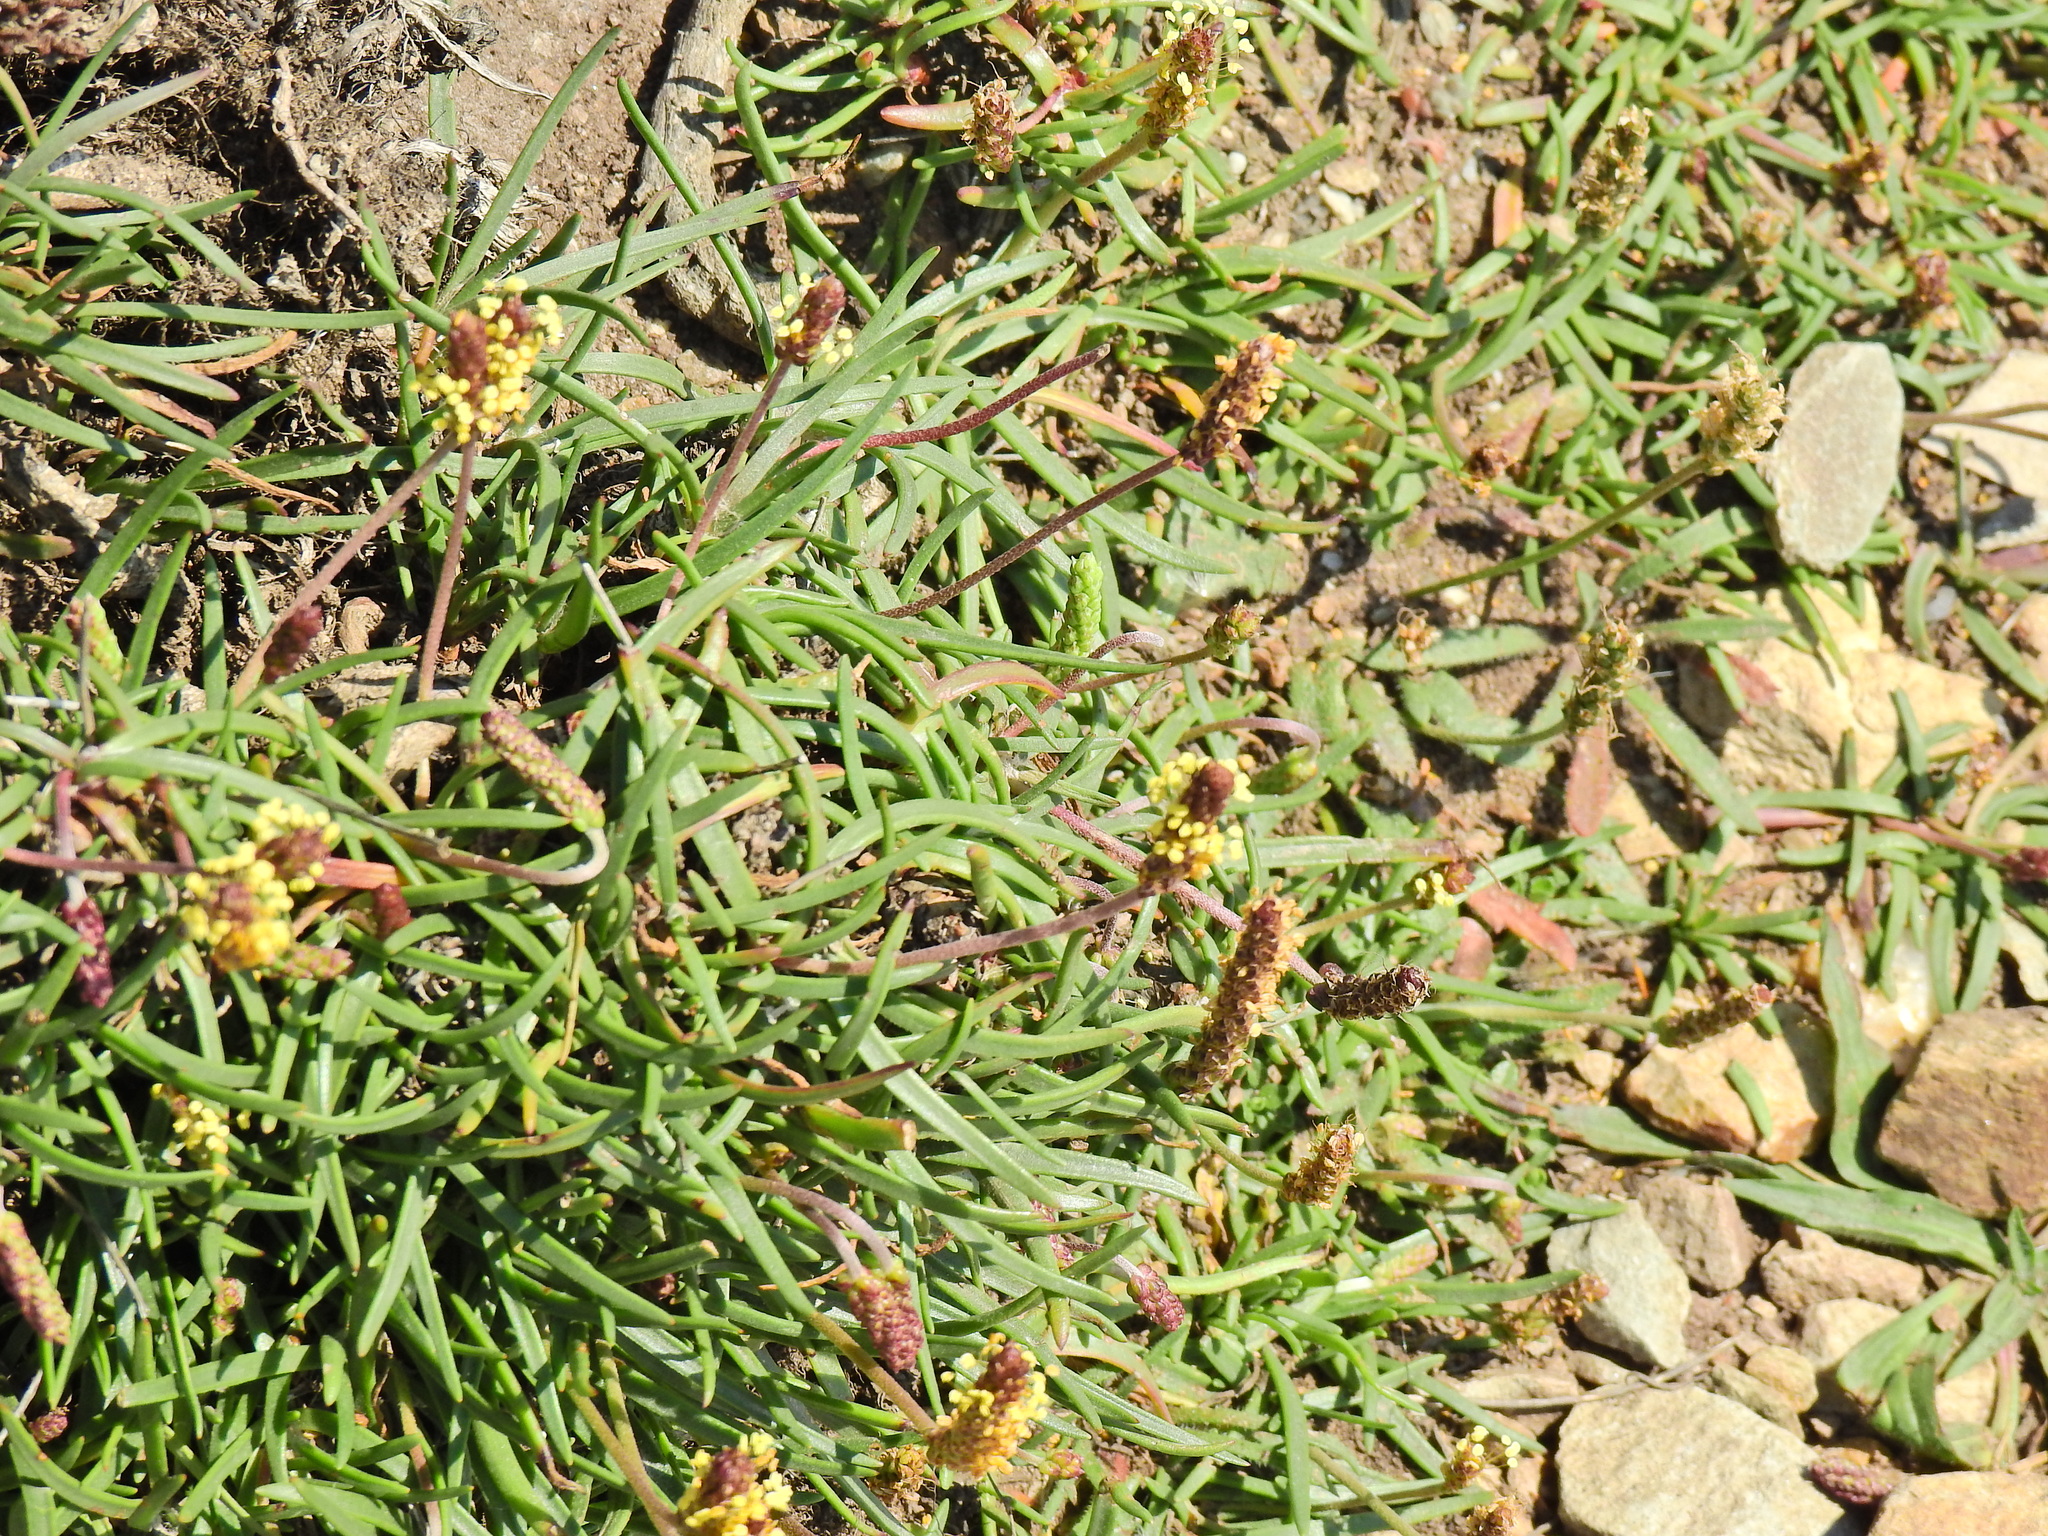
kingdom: Plantae
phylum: Tracheophyta
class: Magnoliopsida
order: Lamiales
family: Plantaginaceae
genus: Plantago
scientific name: Plantago maritima
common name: Sea plantain
